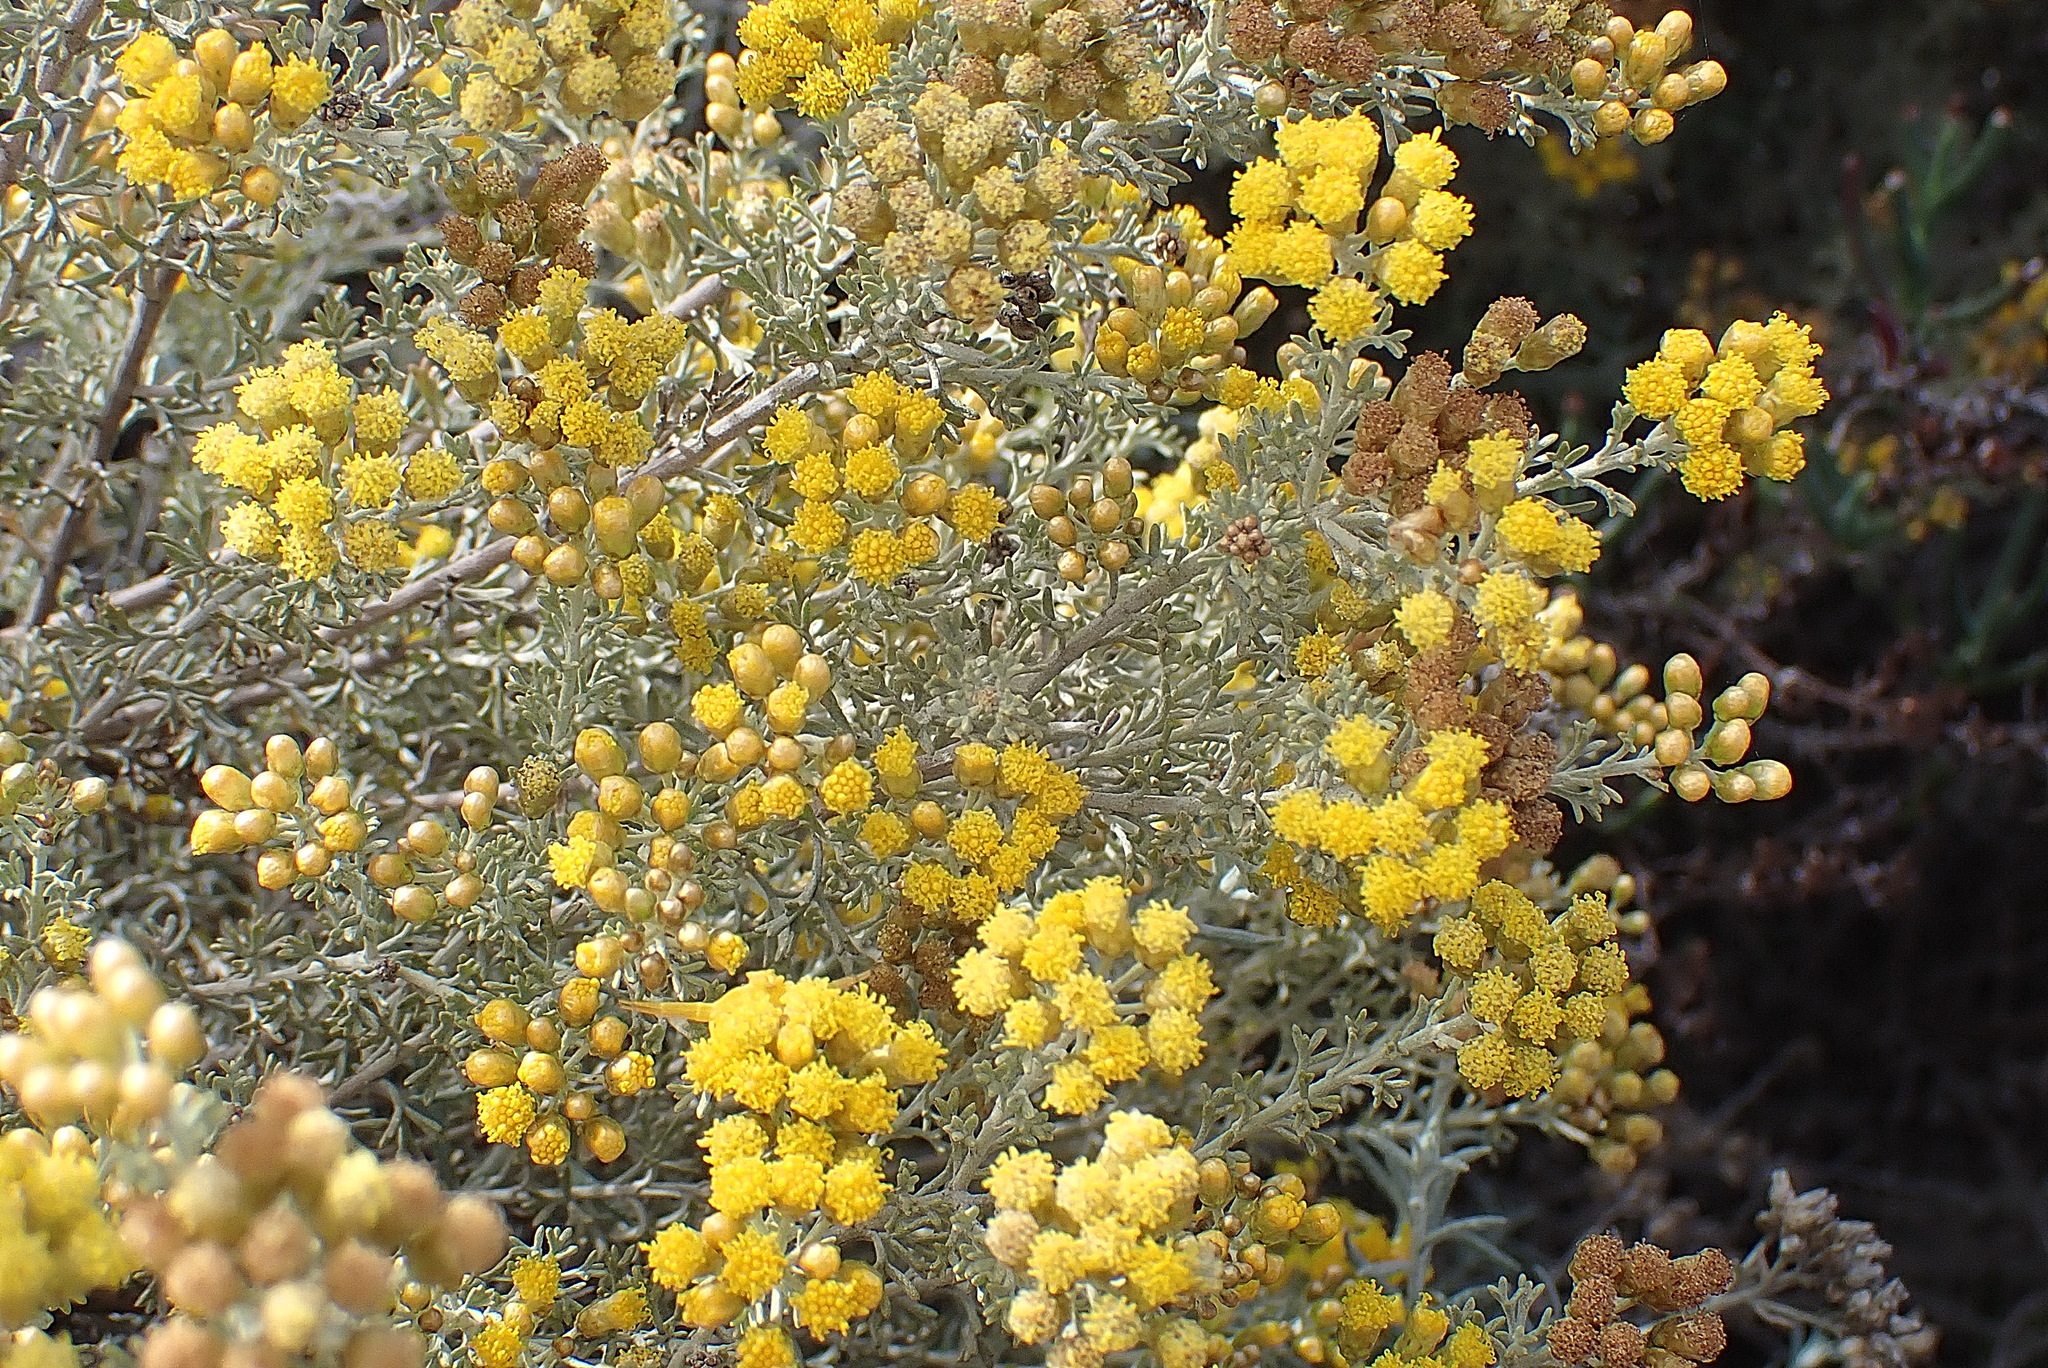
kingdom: Plantae
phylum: Tracheophyta
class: Magnoliopsida
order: Asterales
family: Asteraceae
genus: Pentzia
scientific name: Pentzia elegans
